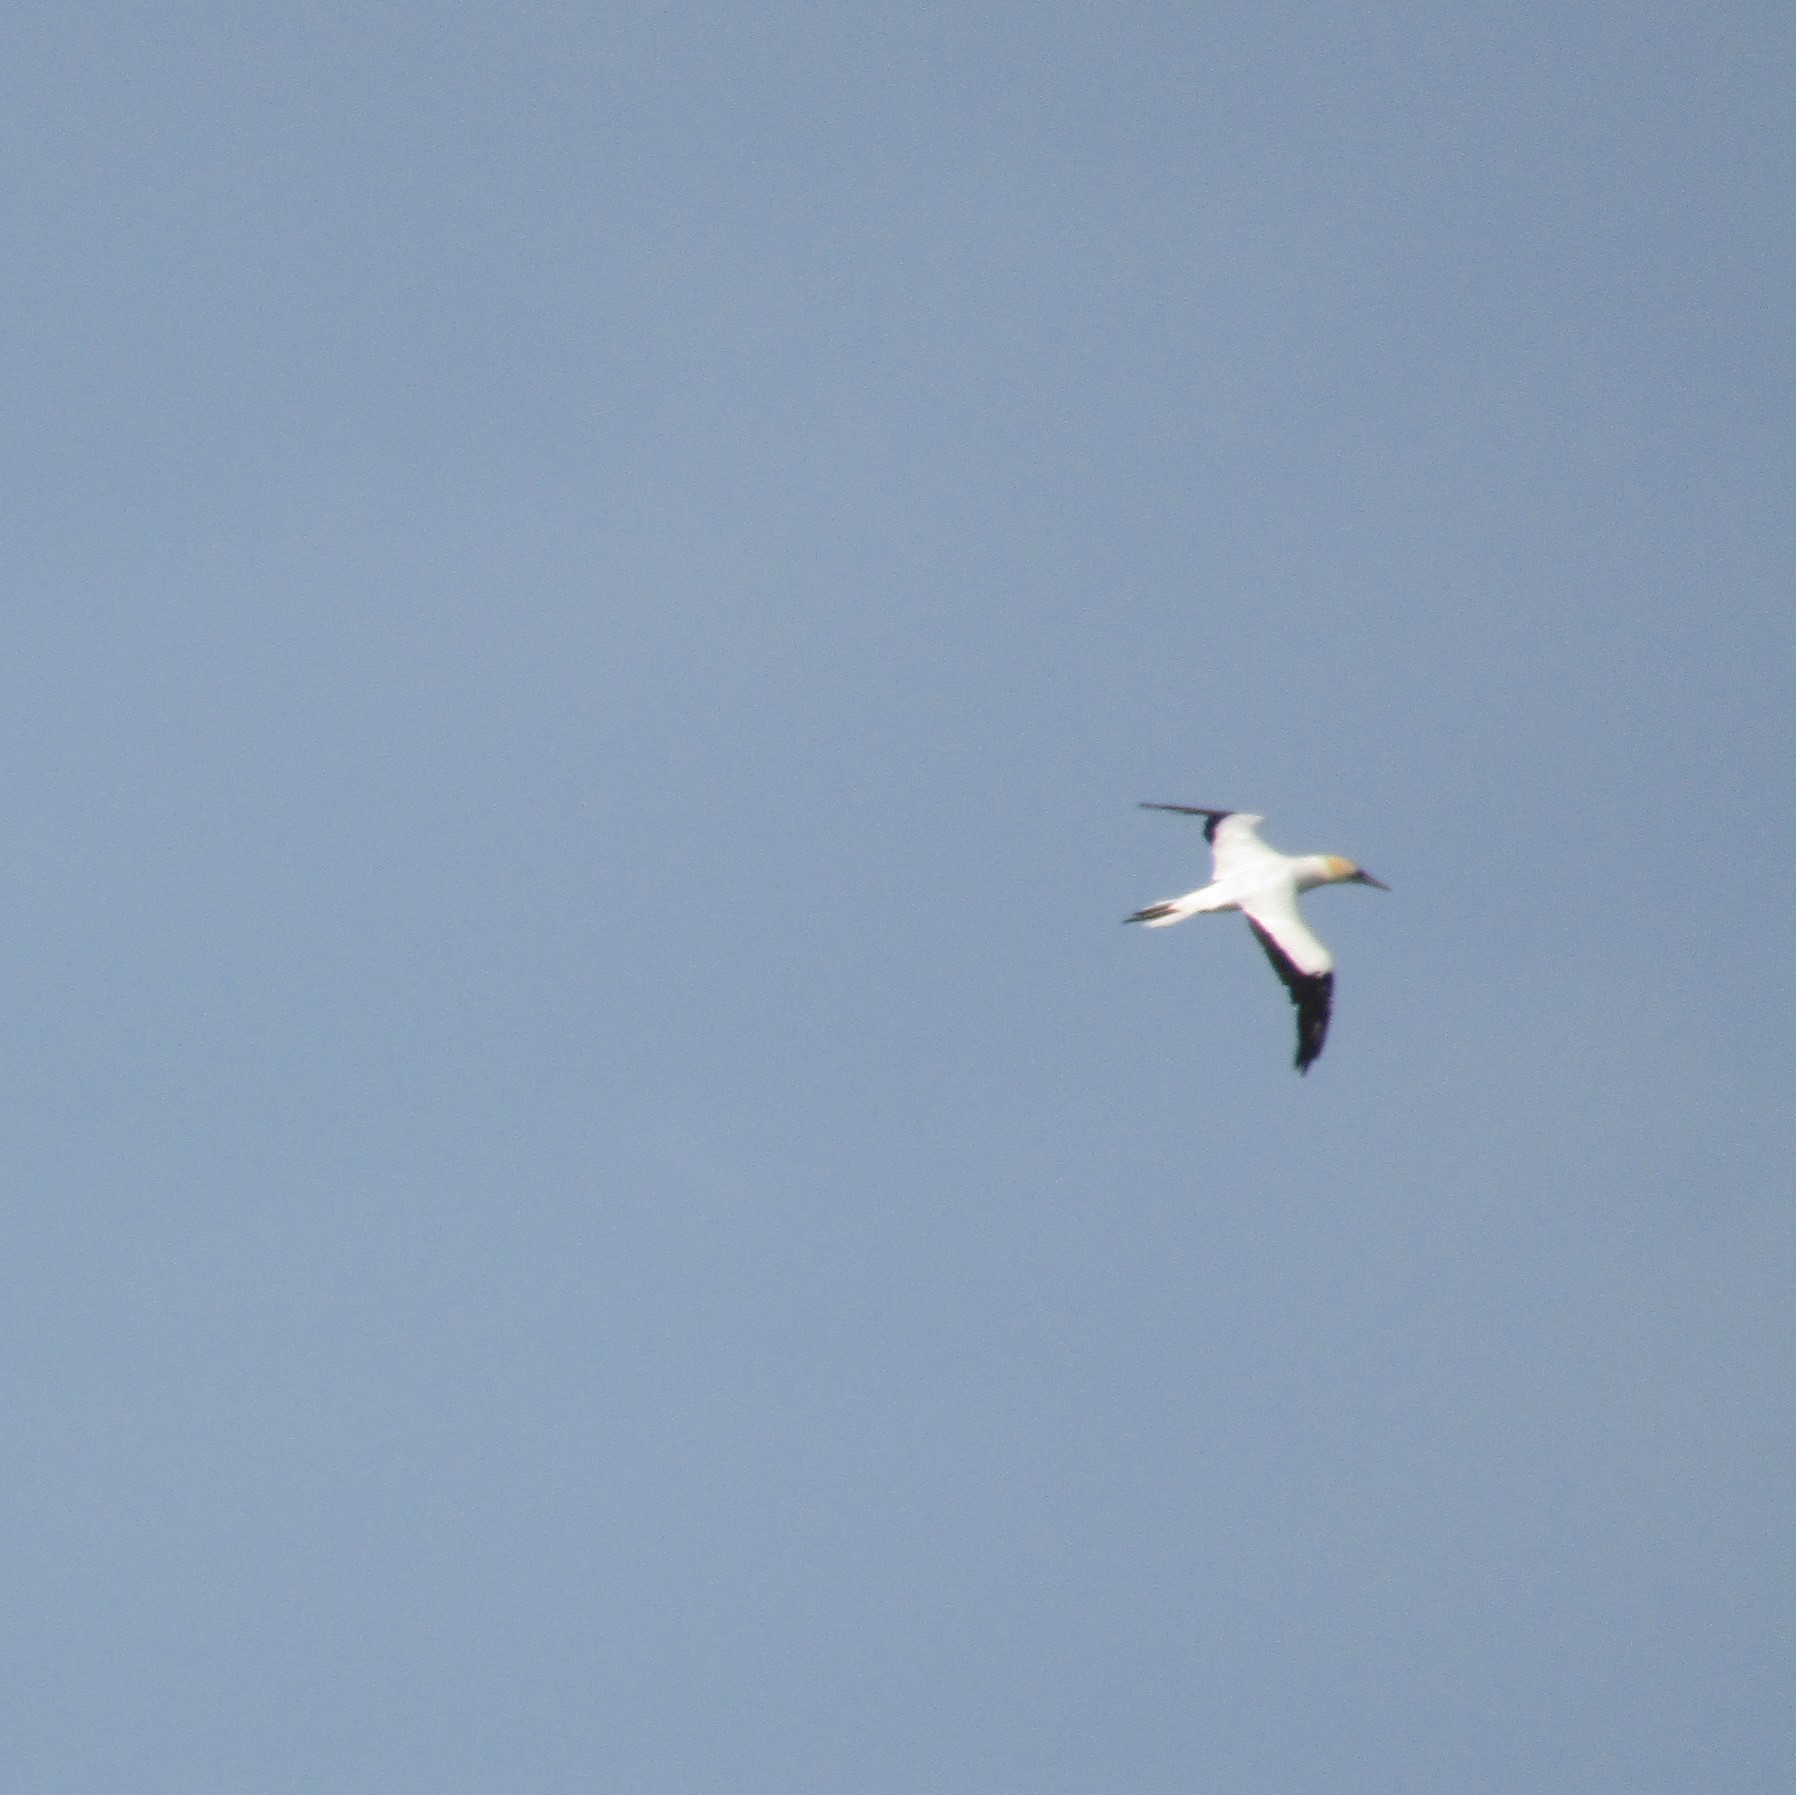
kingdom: Animalia
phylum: Chordata
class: Aves
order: Suliformes
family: Sulidae
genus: Morus
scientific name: Morus serrator
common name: Australasian gannet
